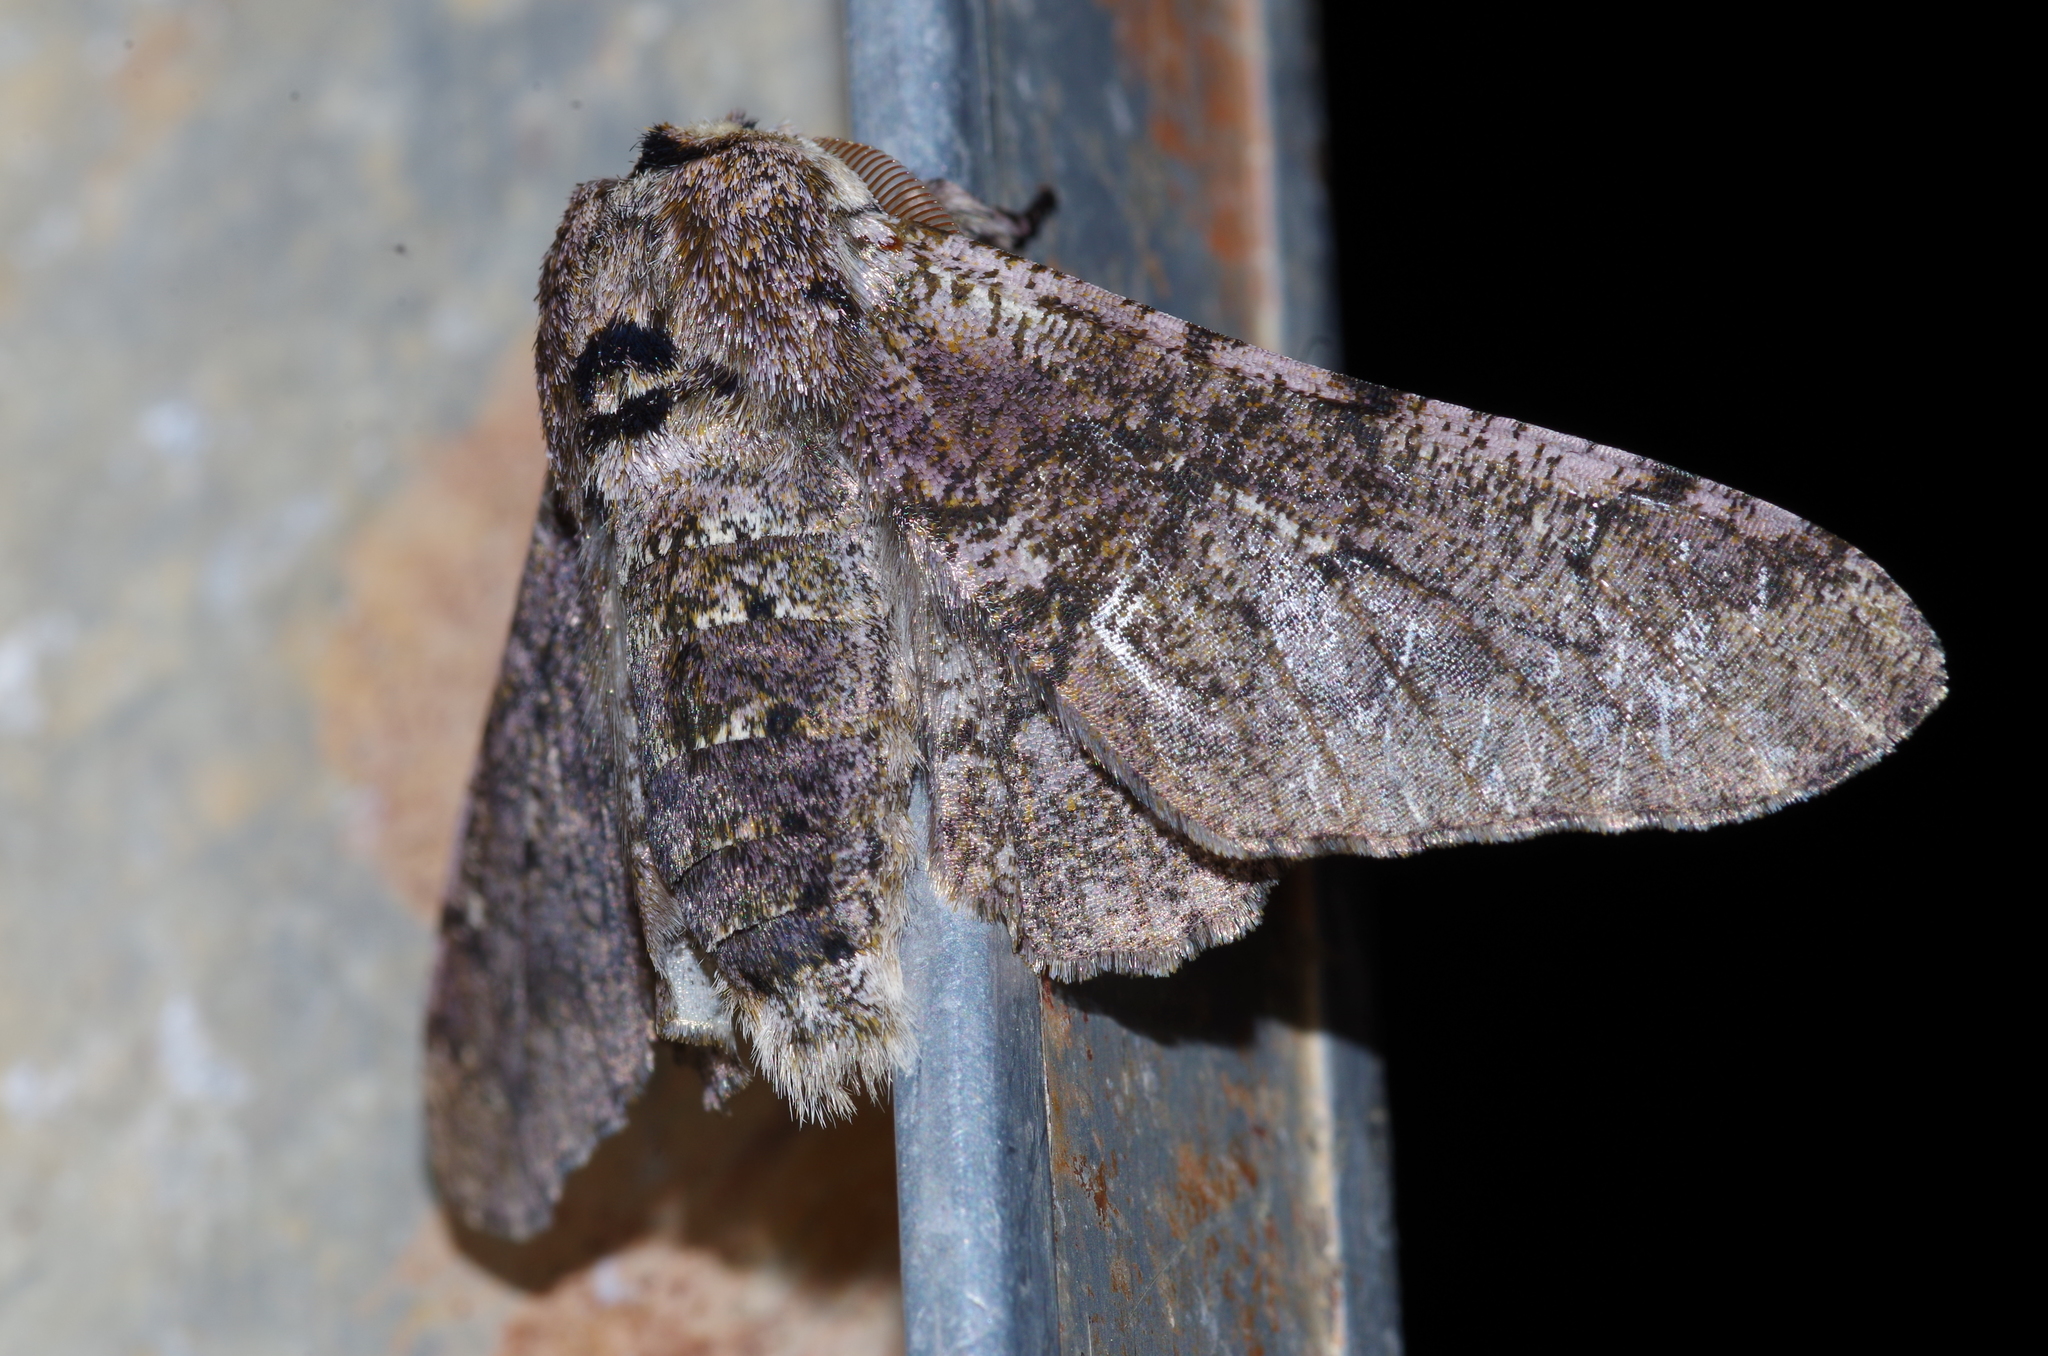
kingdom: Animalia
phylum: Arthropoda
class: Insecta
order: Lepidoptera
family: Geometridae
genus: Biston
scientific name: Biston robustum
